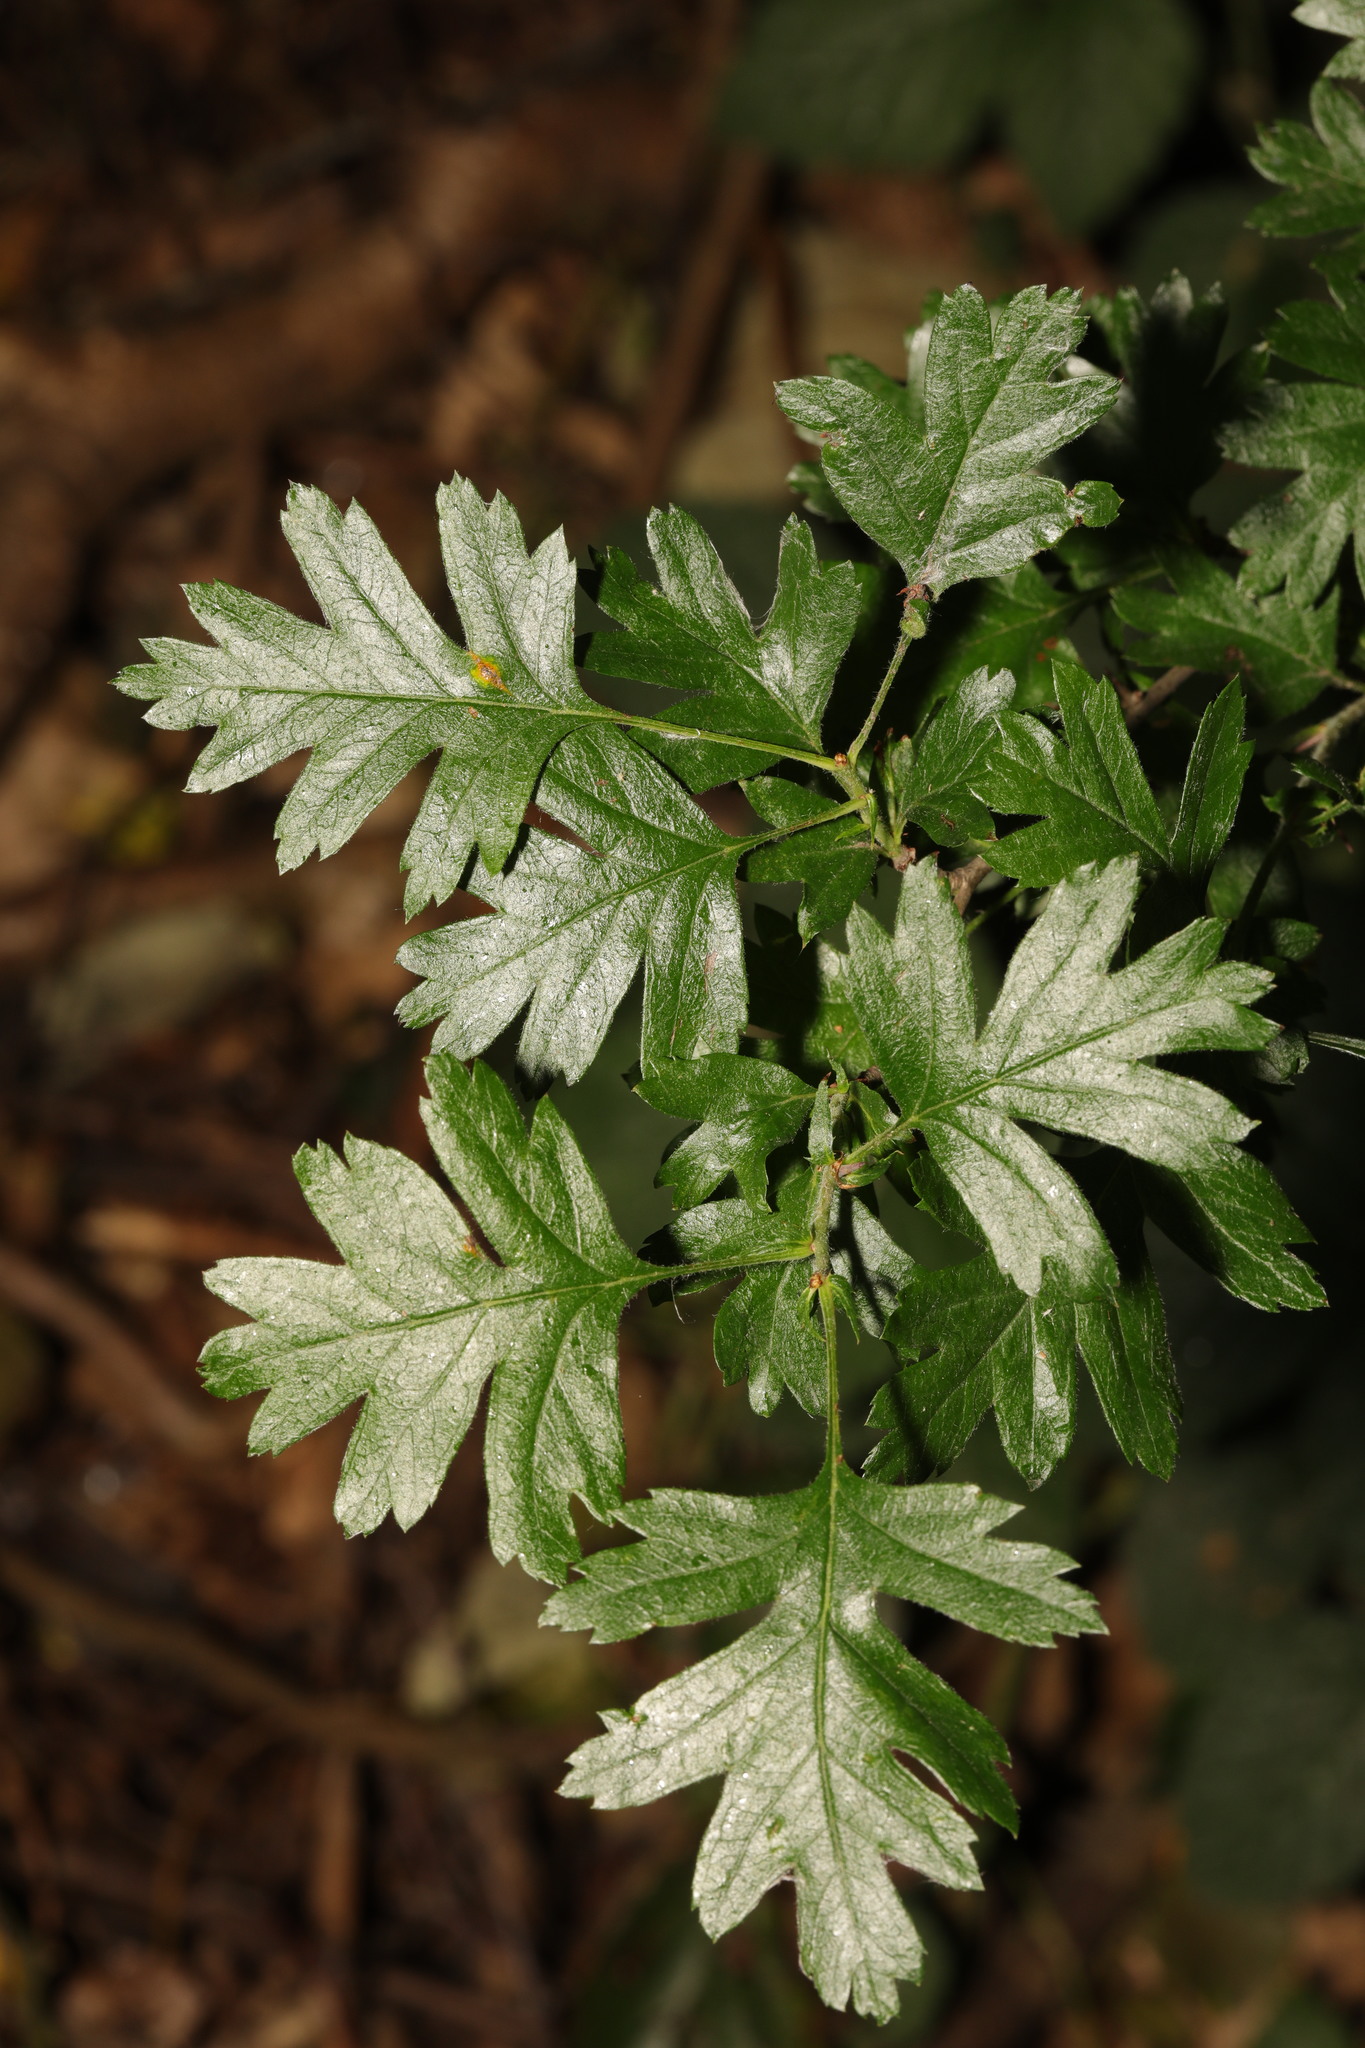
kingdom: Plantae
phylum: Tracheophyta
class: Magnoliopsida
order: Rosales
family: Rosaceae
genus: Crataegus
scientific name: Crataegus monogyna
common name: Hawthorn
